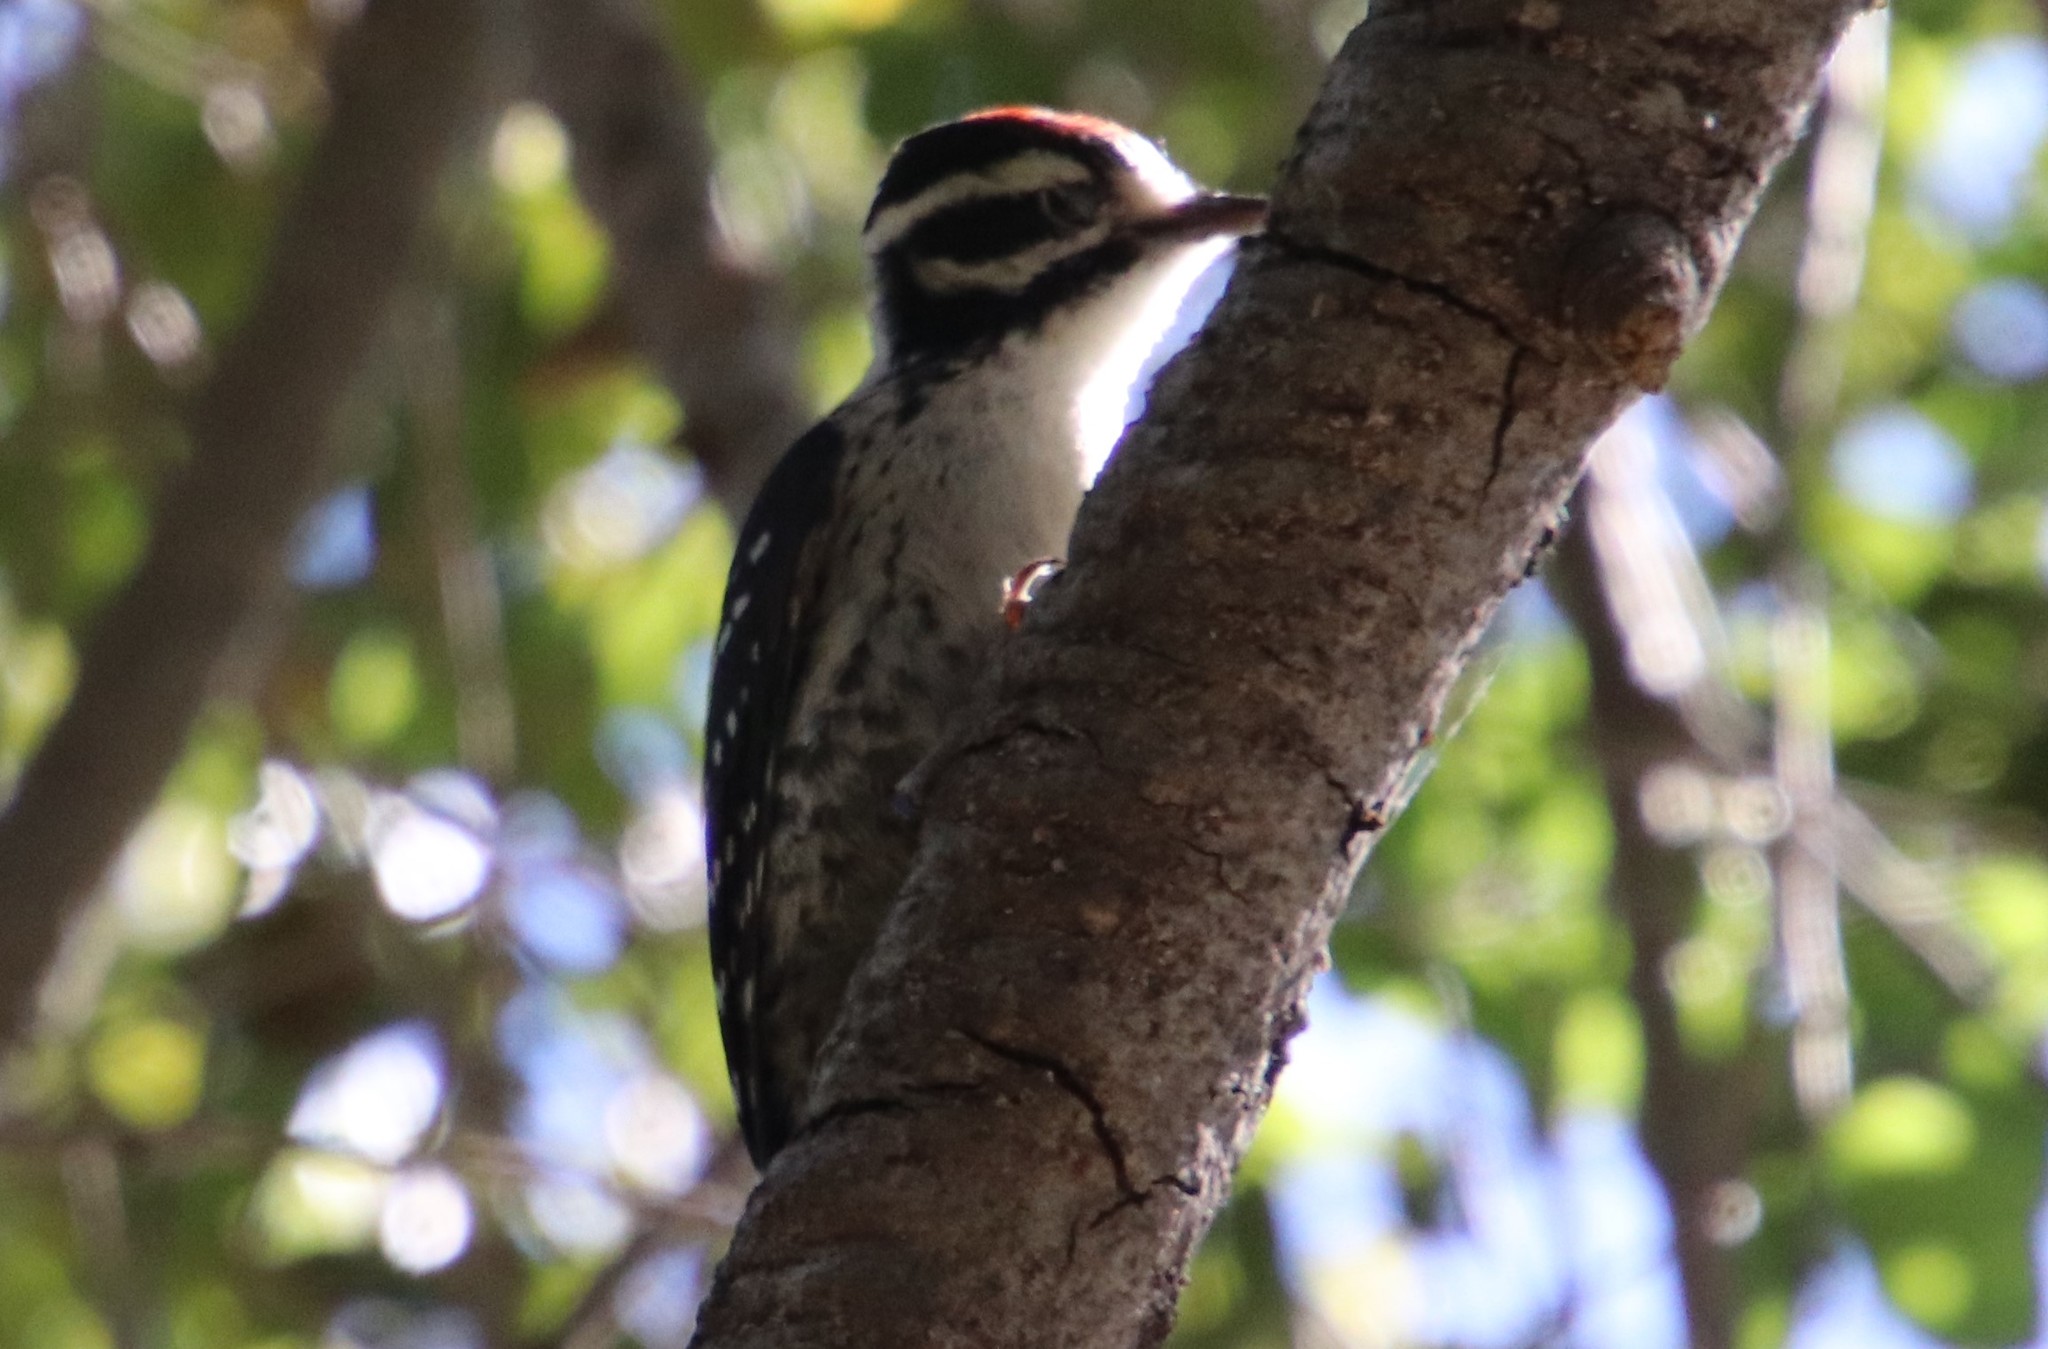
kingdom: Animalia
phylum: Chordata
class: Aves
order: Piciformes
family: Picidae
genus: Dryobates
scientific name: Dryobates nuttallii
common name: Nuttall's woodpecker
